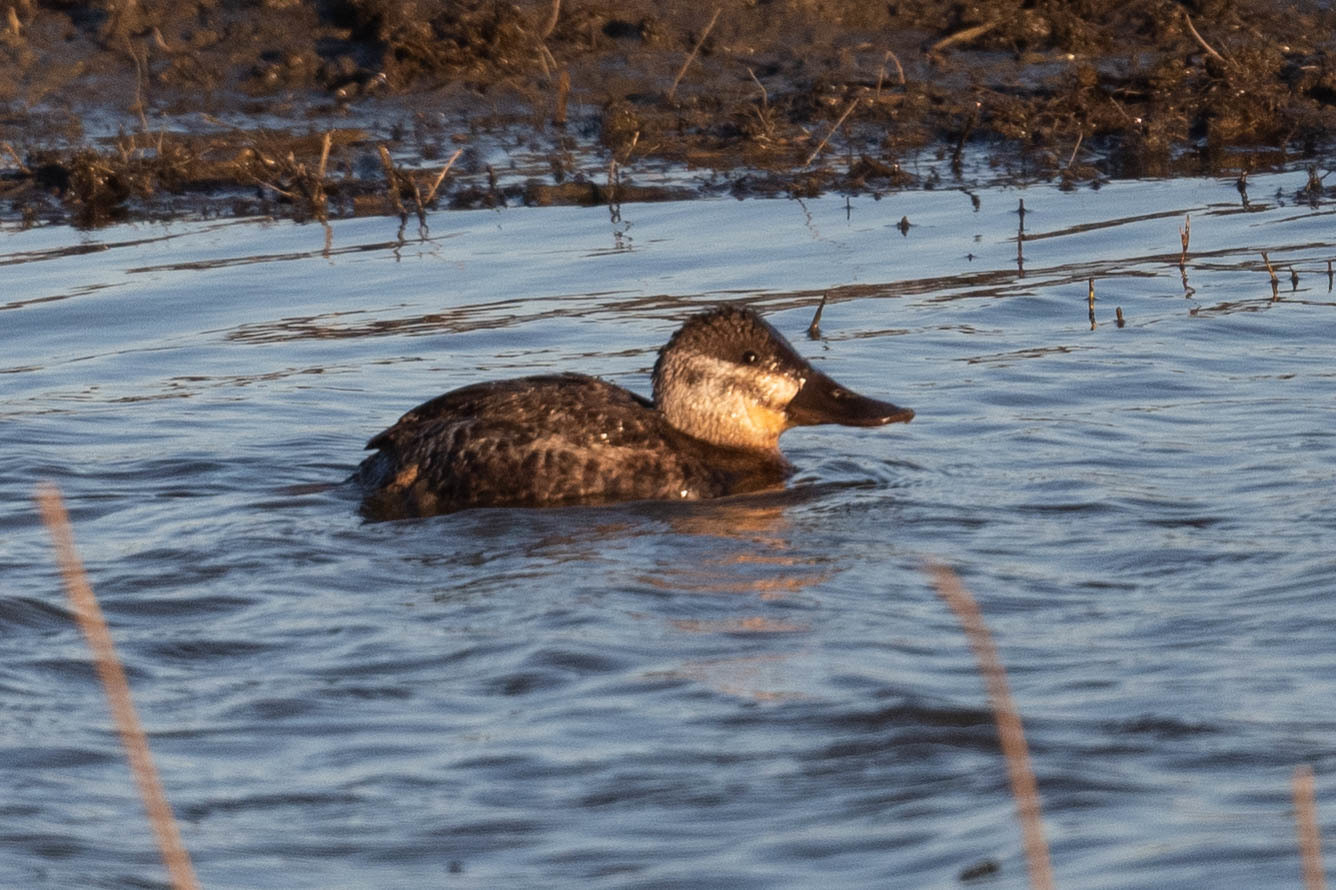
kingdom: Animalia
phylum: Chordata
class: Aves
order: Anseriformes
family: Anatidae
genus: Oxyura
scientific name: Oxyura jamaicensis
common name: Ruddy duck
